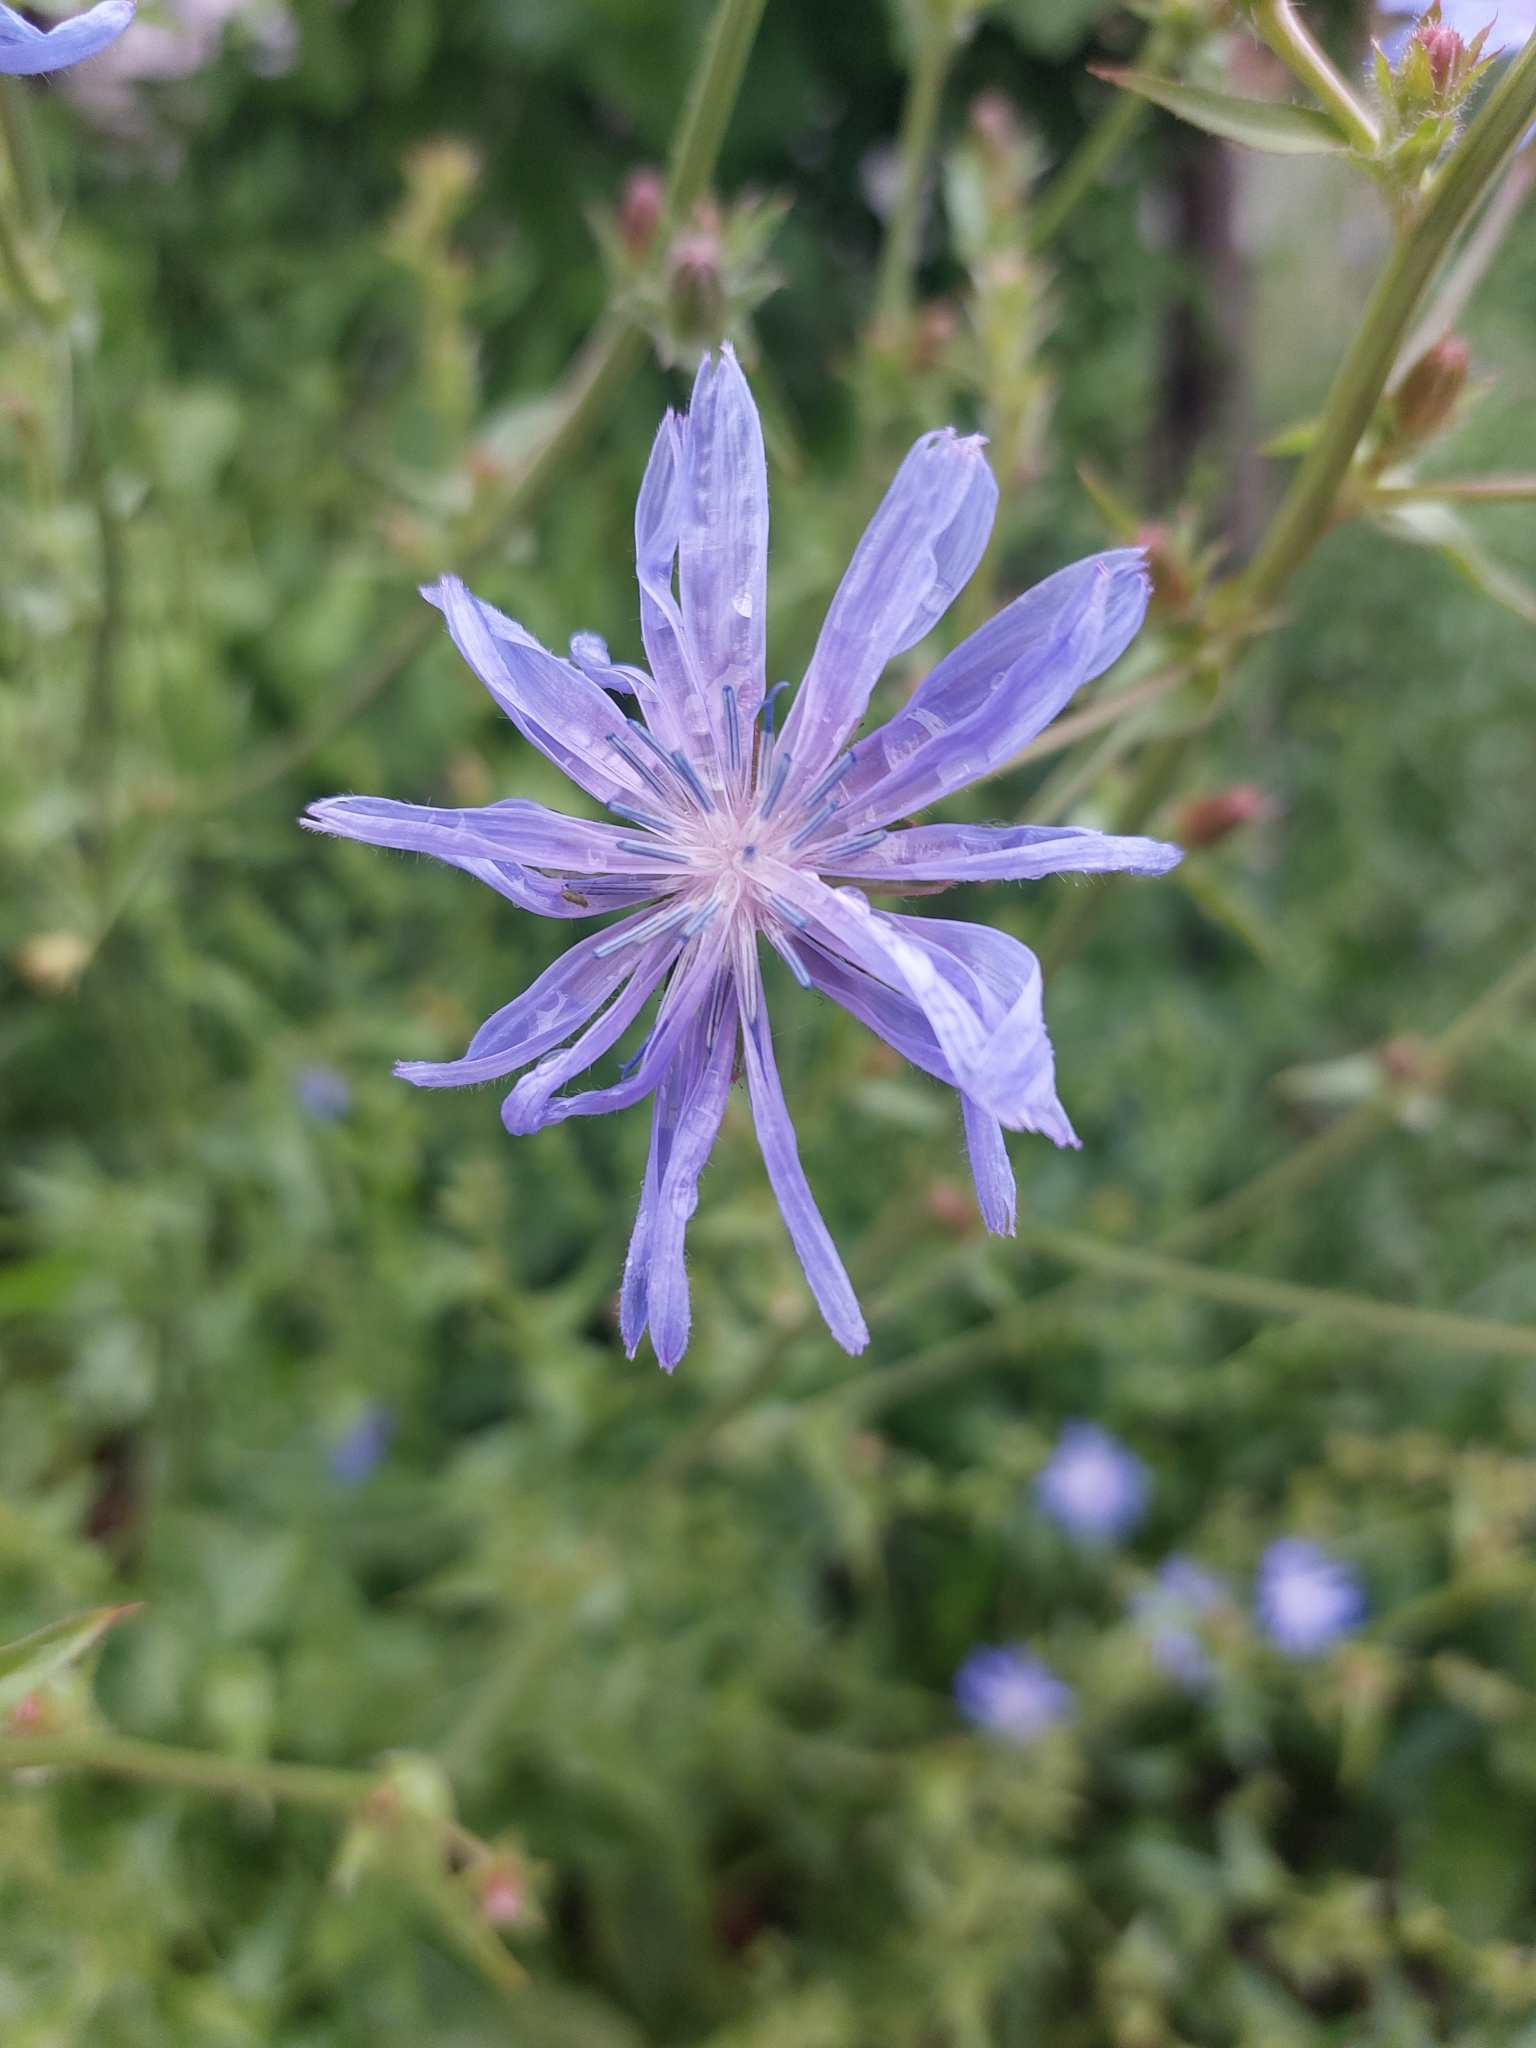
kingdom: Plantae
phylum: Tracheophyta
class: Magnoliopsida
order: Asterales
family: Asteraceae
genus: Cichorium
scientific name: Cichorium intybus
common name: Chicory
